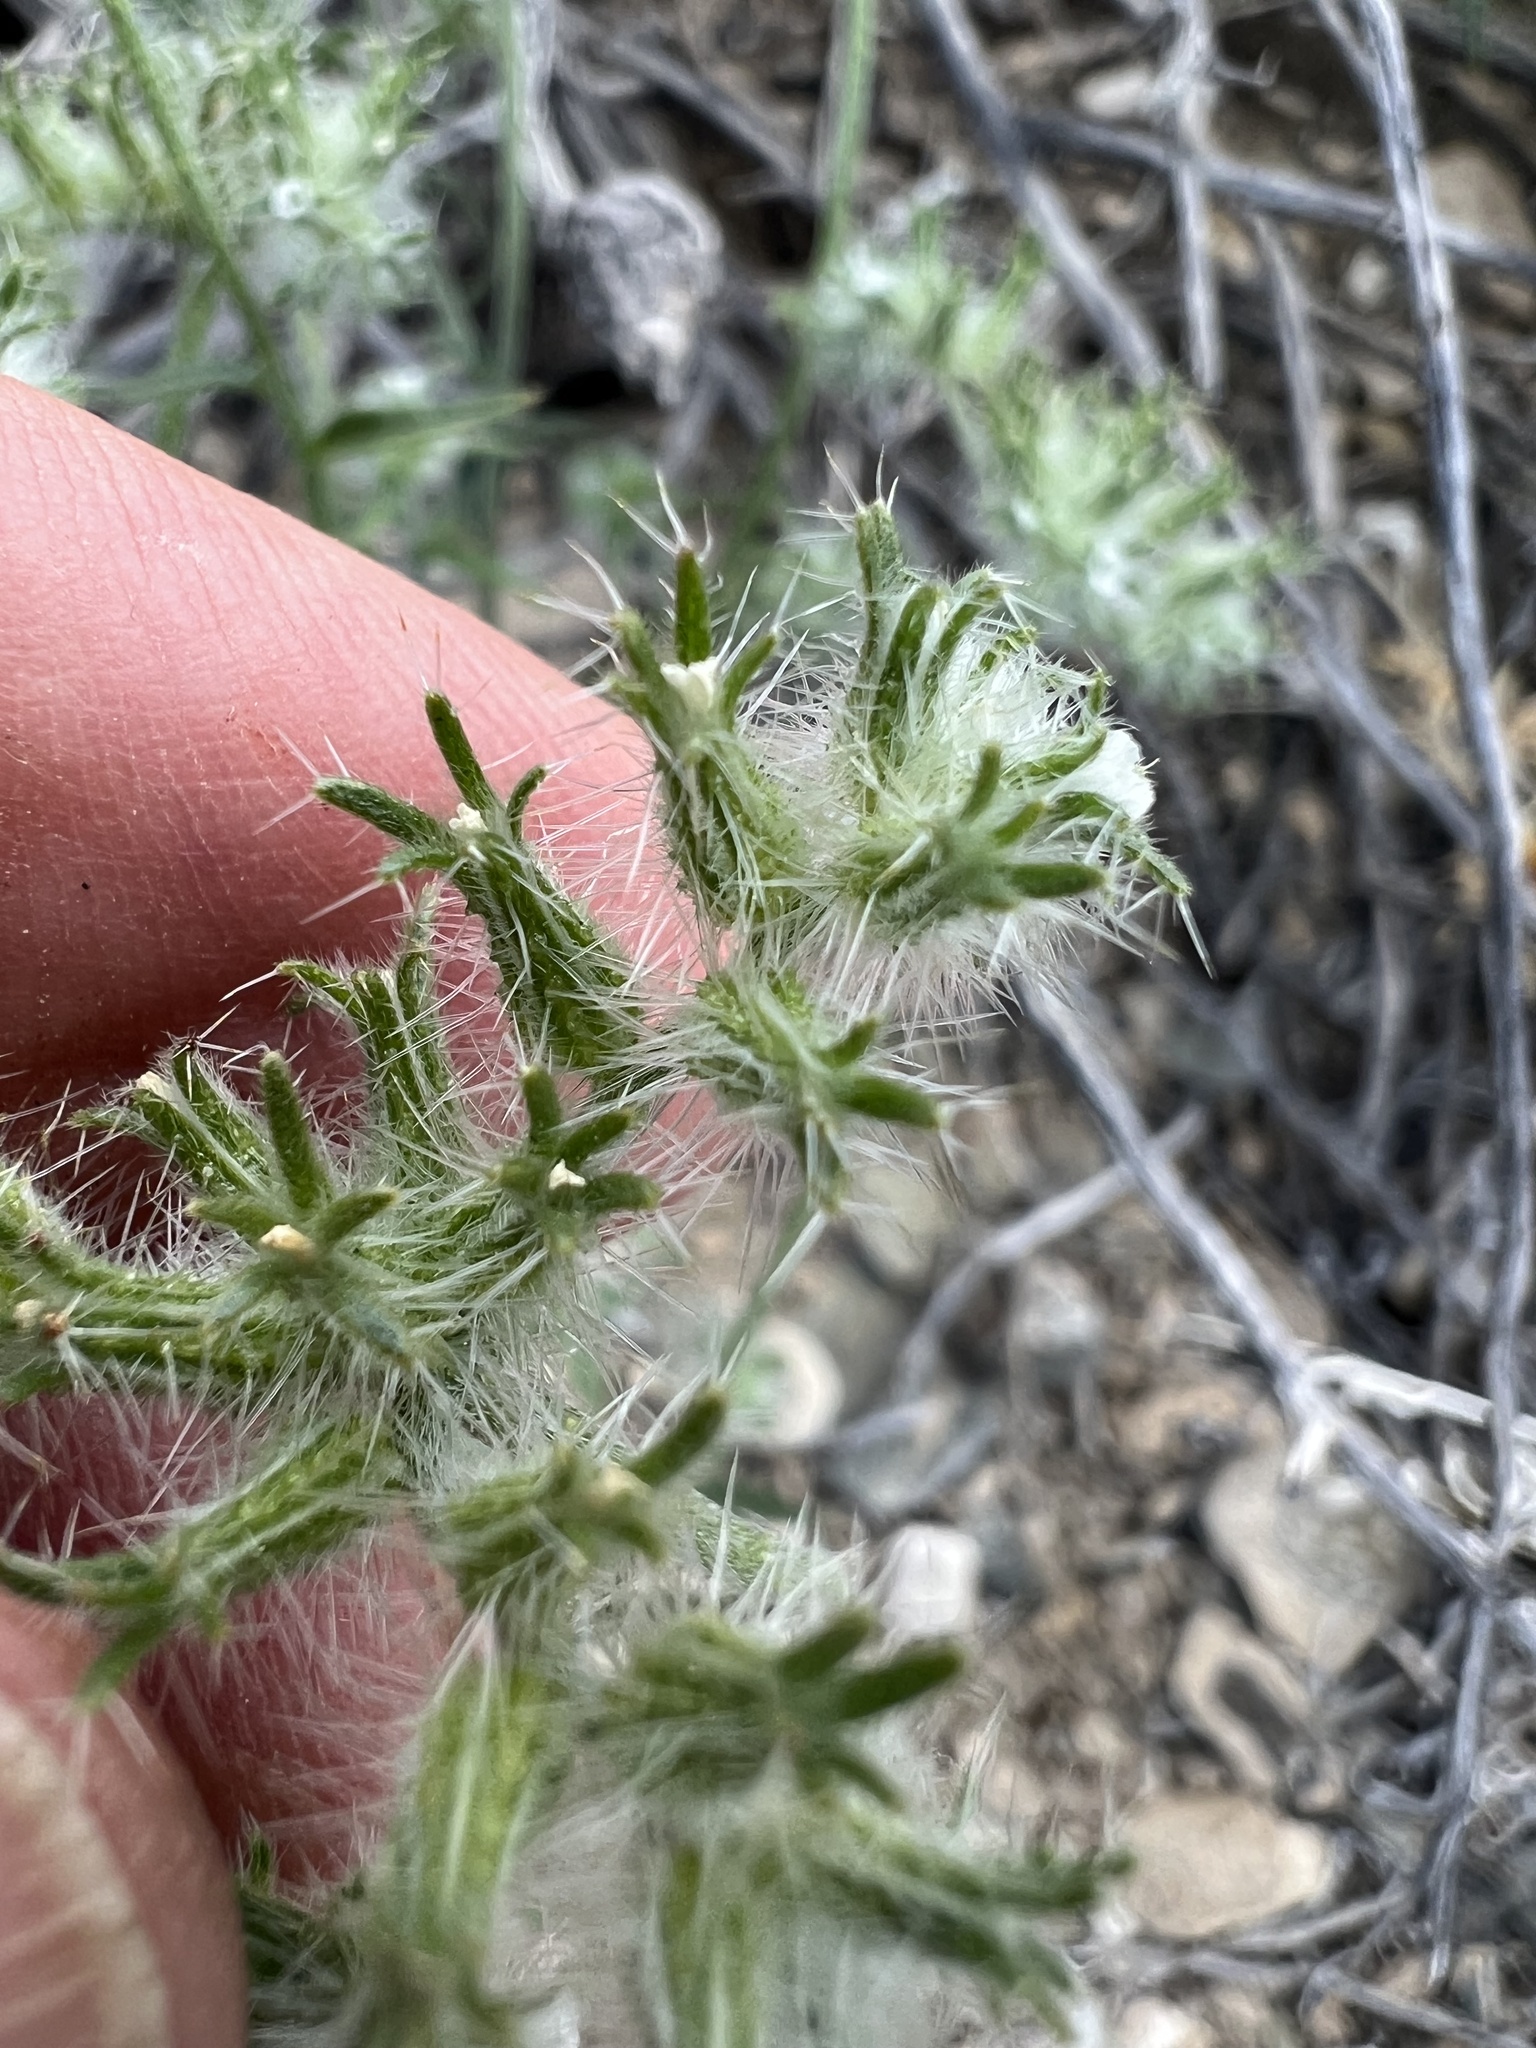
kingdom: Plantae
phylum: Tracheophyta
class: Magnoliopsida
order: Boraginales
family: Boraginaceae
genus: Cryptantha
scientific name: Cryptantha nevadensis
